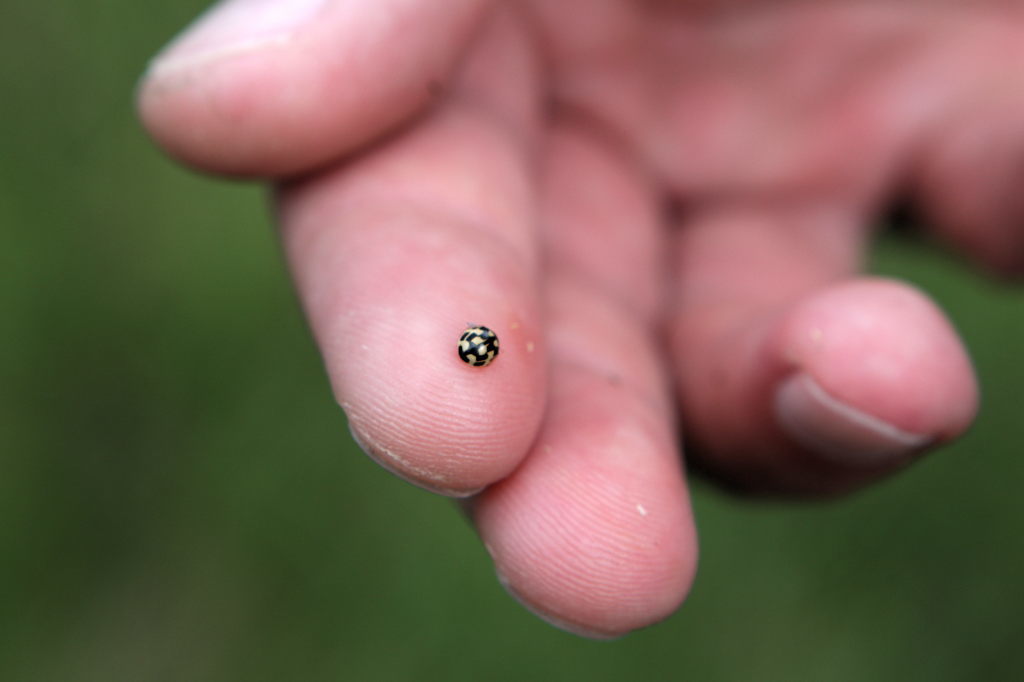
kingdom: Animalia
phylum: Arthropoda
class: Insecta
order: Coleoptera
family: Coccinellidae
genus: Propylaea
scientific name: Propylaea quatuordecimpunctata
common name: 14-spotted ladybird beetle
